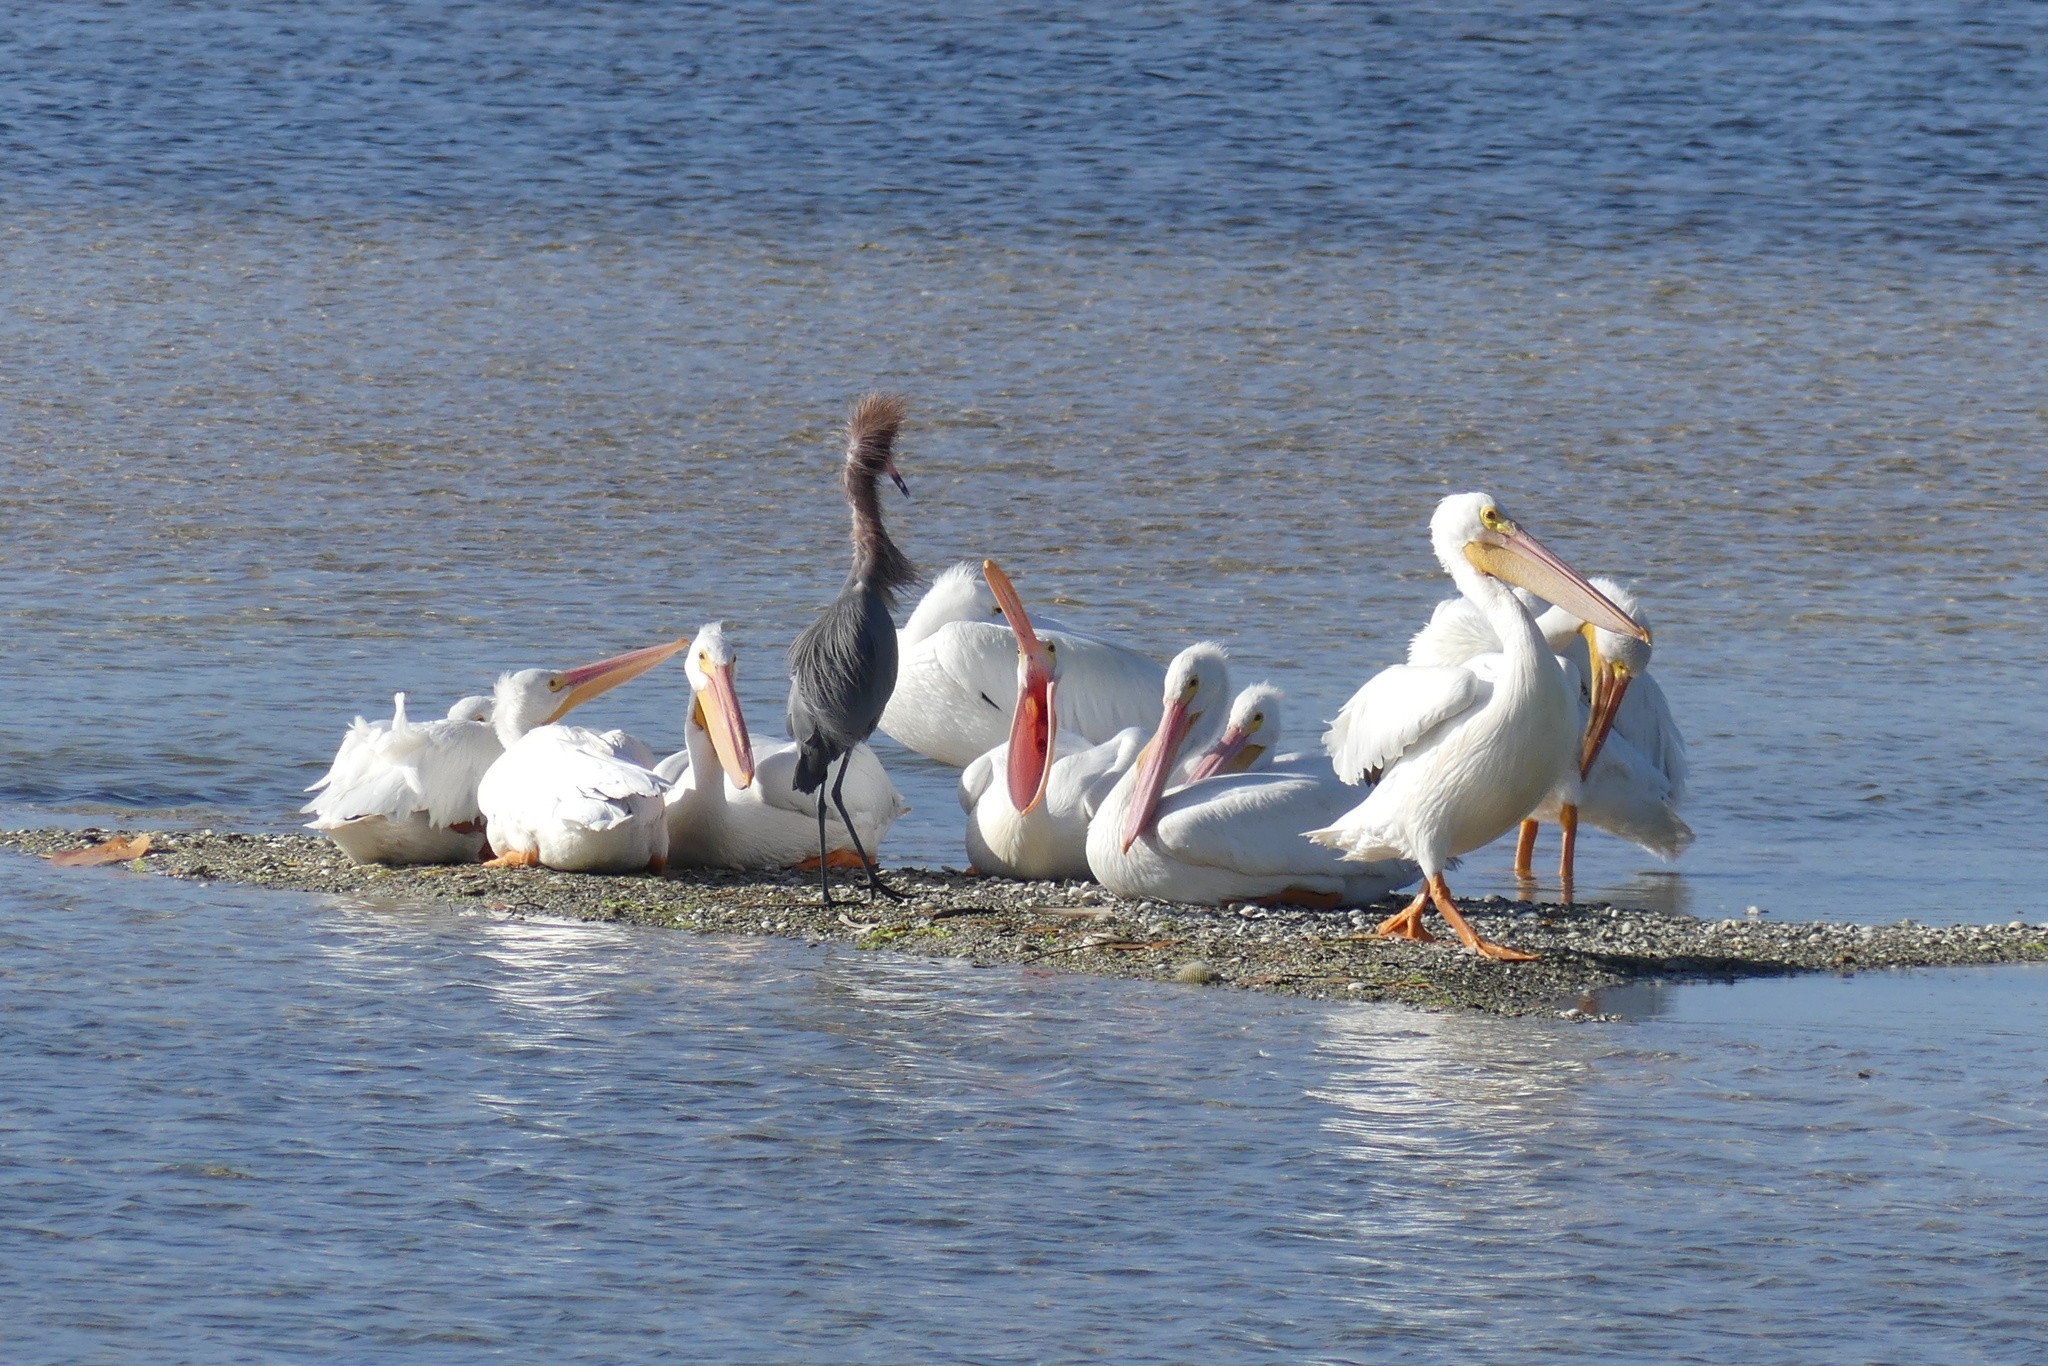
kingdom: Animalia
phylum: Chordata
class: Aves
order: Pelecaniformes
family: Ardeidae
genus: Egretta
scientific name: Egretta rufescens
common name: Reddish egret
